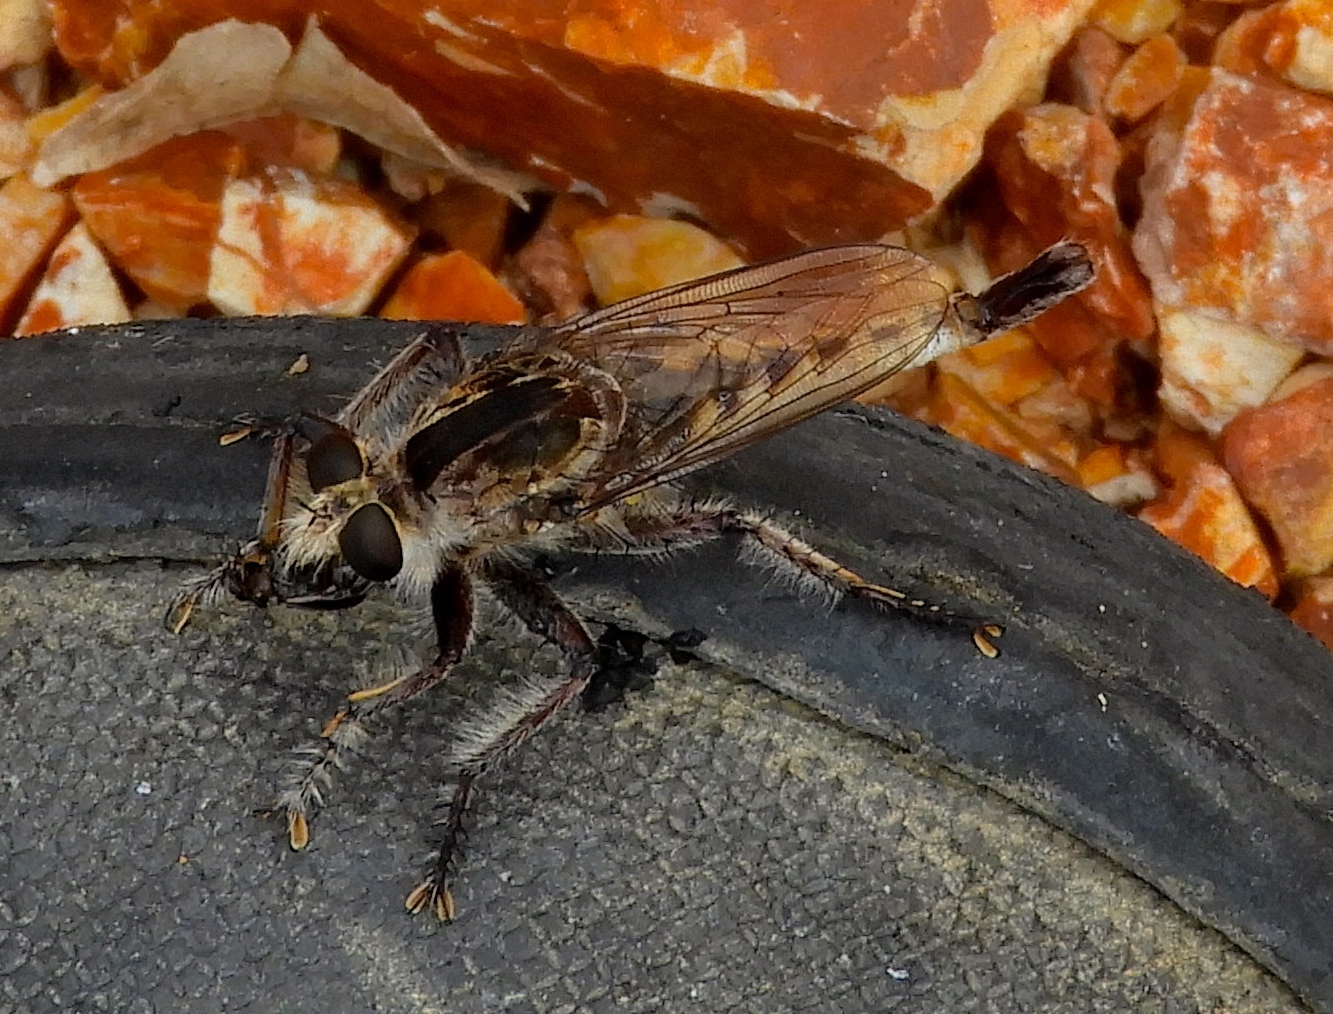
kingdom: Animalia
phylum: Arthropoda
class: Insecta
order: Diptera
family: Asilidae
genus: Efferia
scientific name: Efferia
